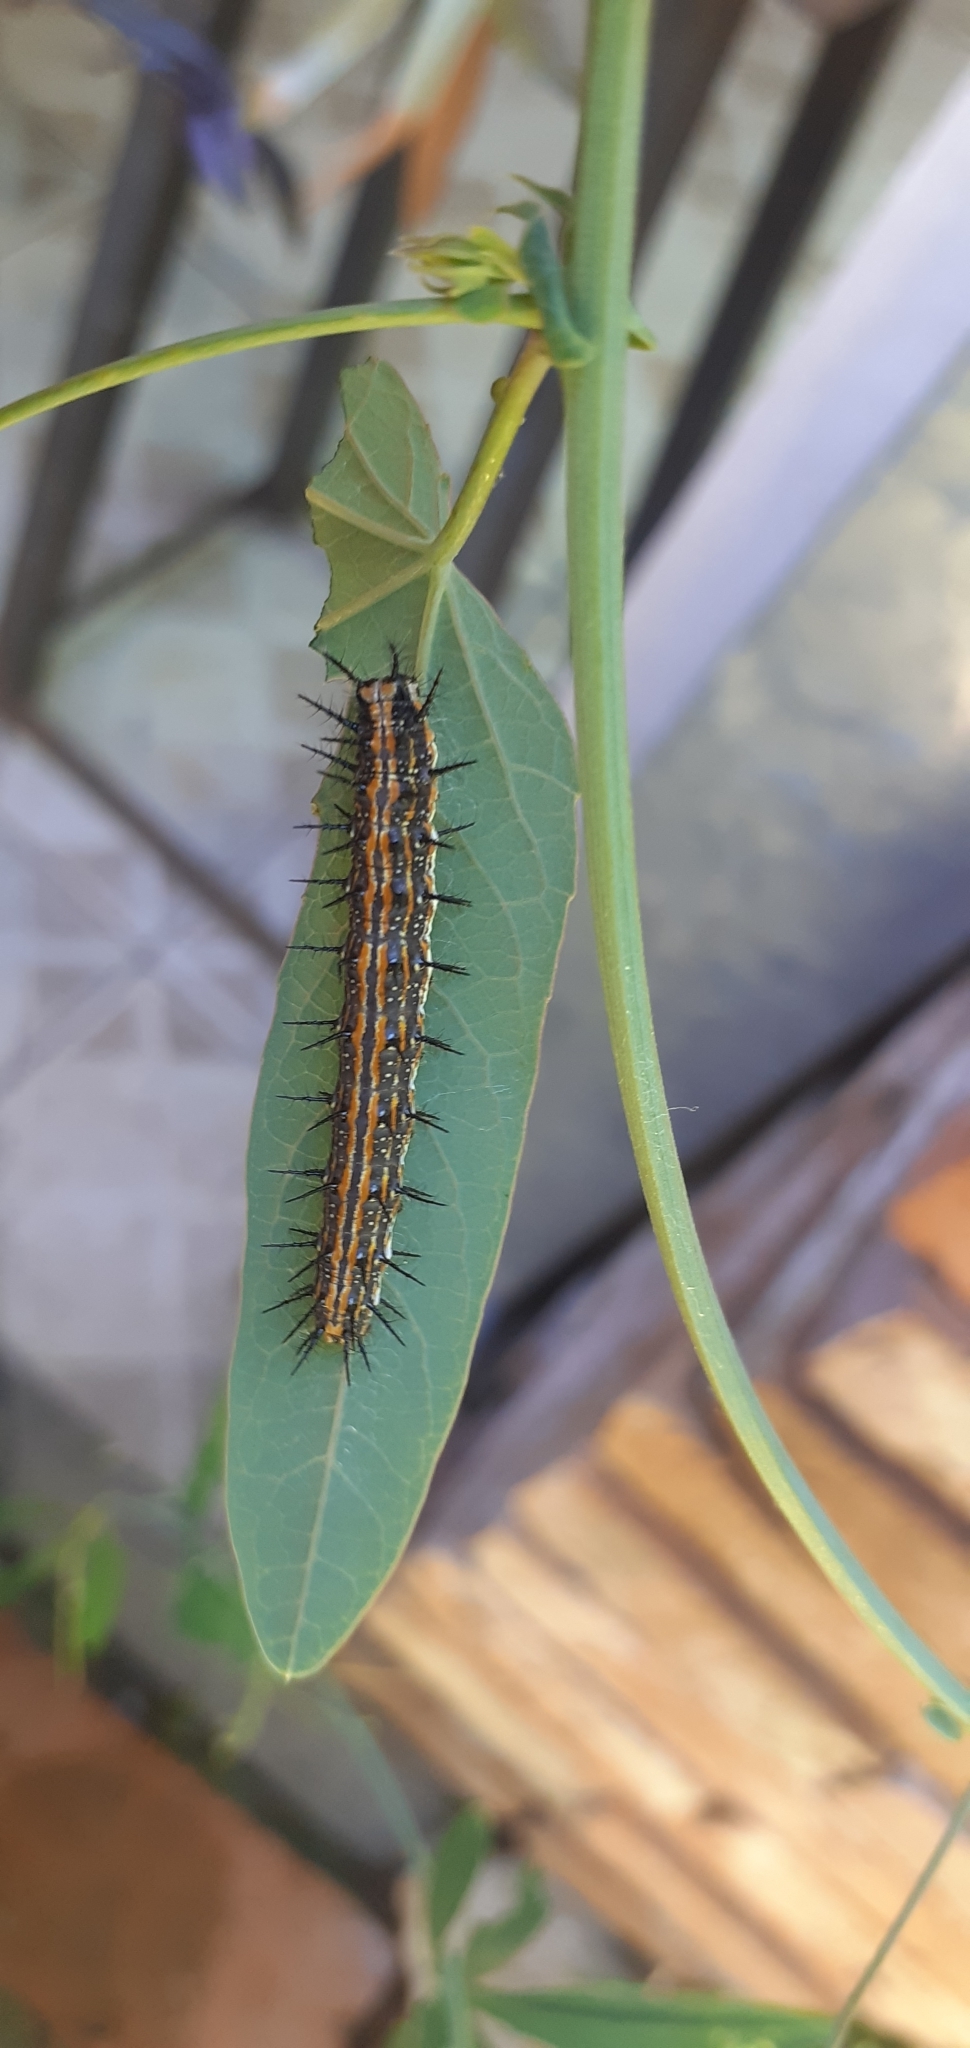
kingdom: Animalia
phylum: Arthropoda
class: Insecta
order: Lepidoptera
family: Nymphalidae
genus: Dione
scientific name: Dione vanillae
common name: Gulf fritillary
